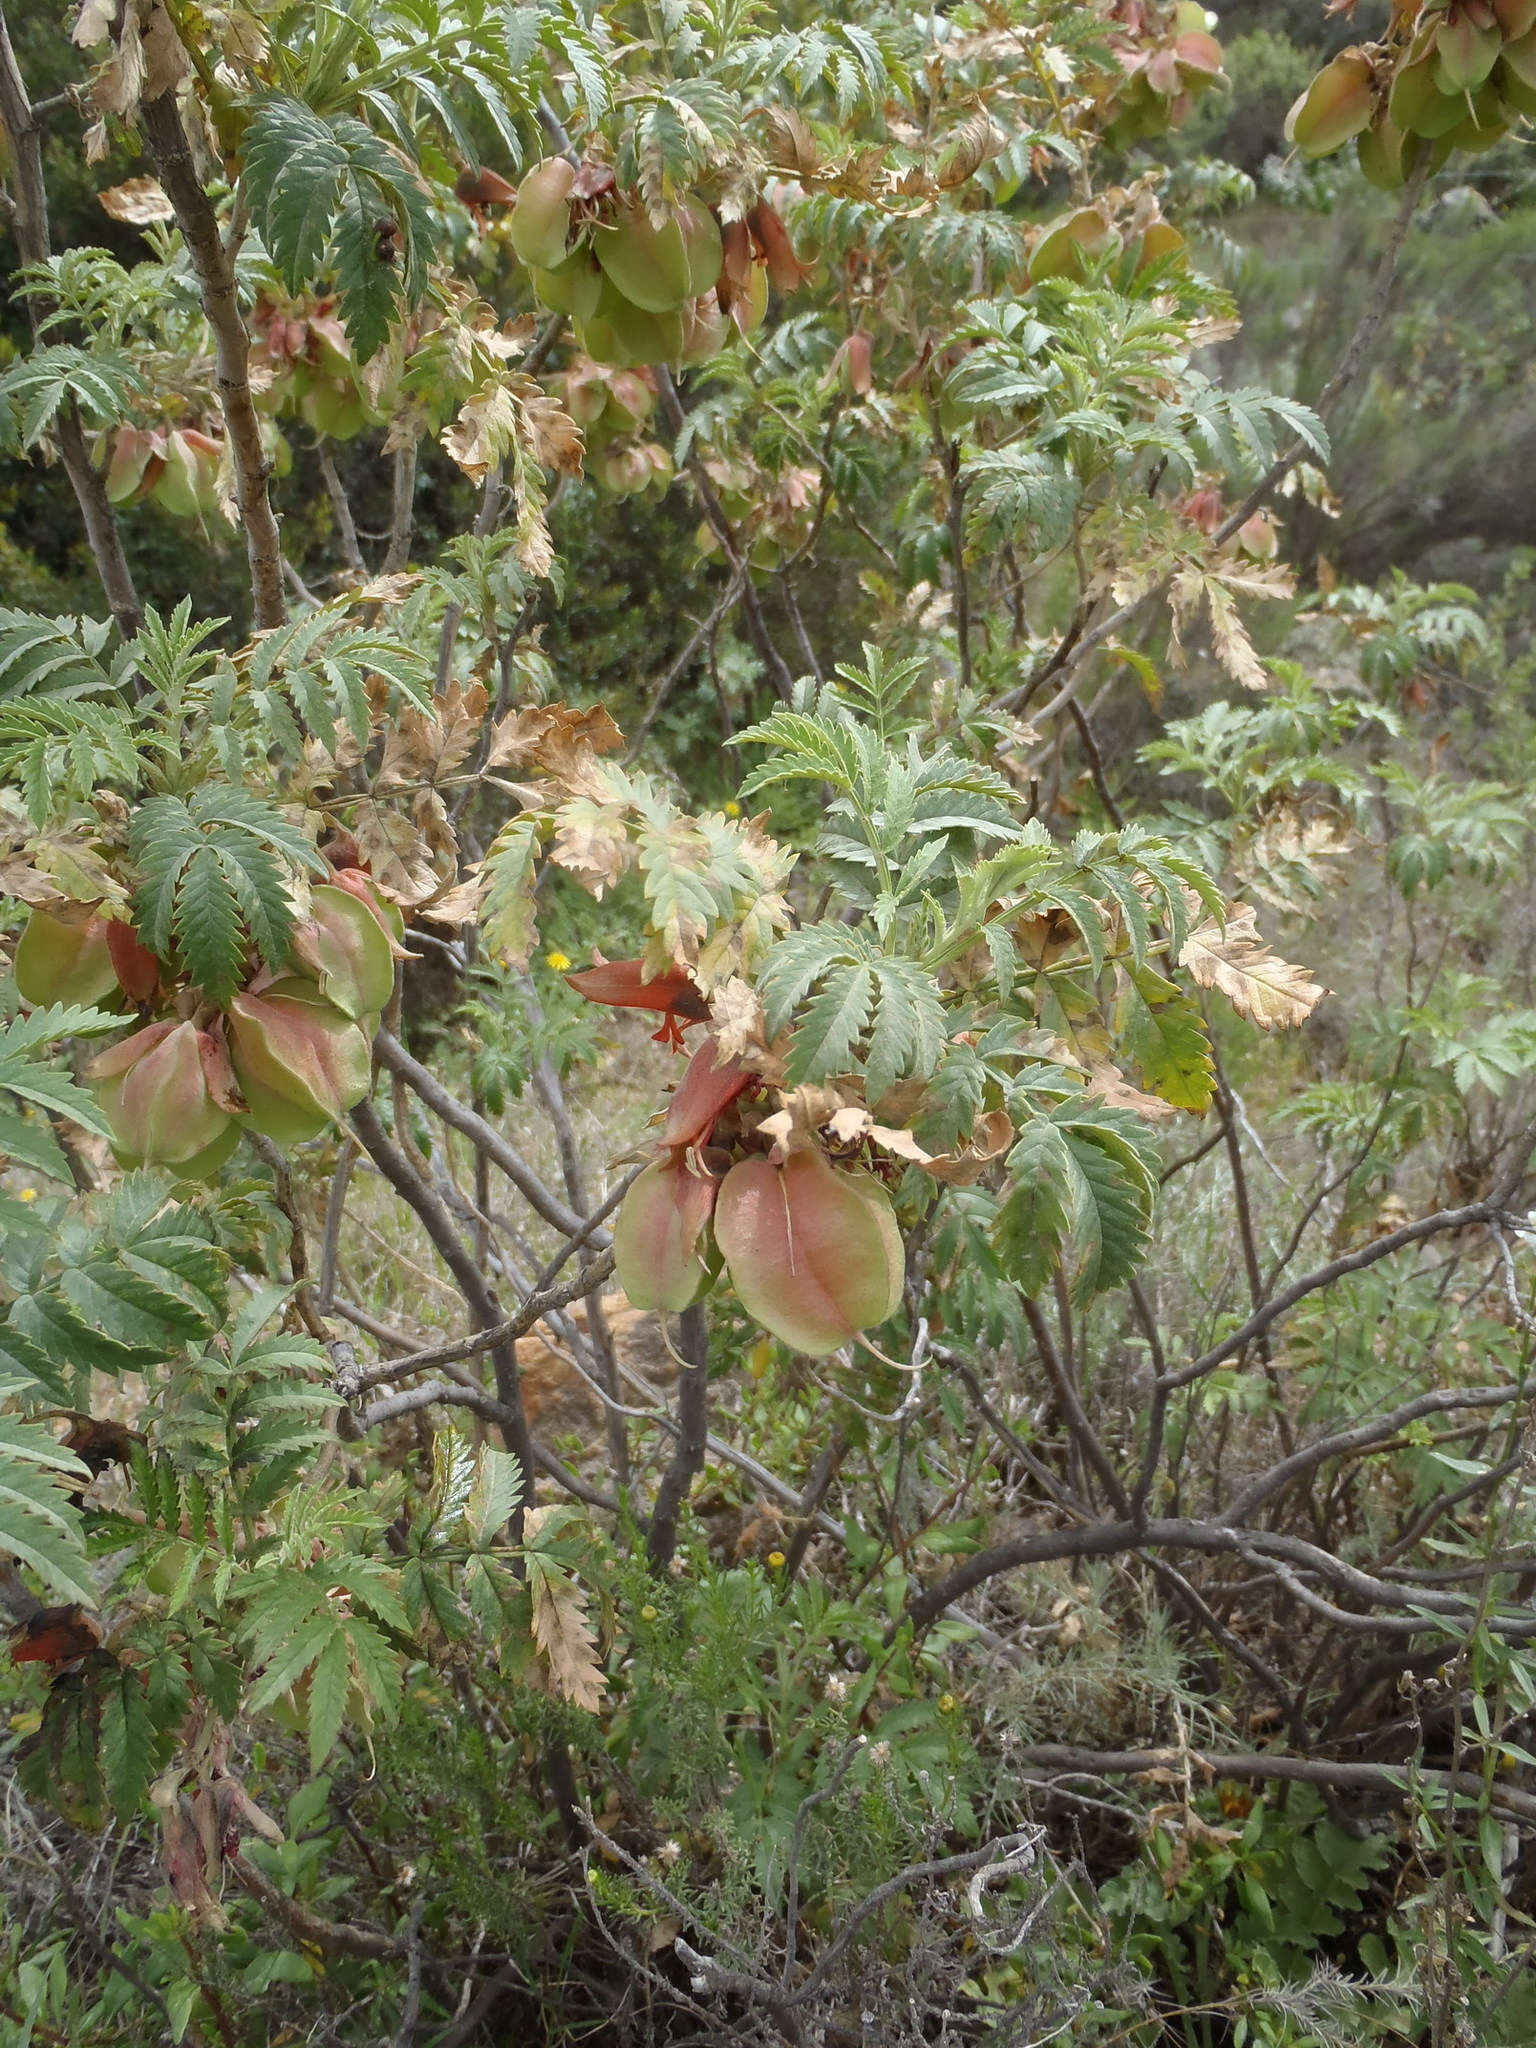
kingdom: Plantae
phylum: Tracheophyta
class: Magnoliopsida
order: Geraniales
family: Melianthaceae
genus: Melianthus
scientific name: Melianthus comosus
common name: Touch-me-not
